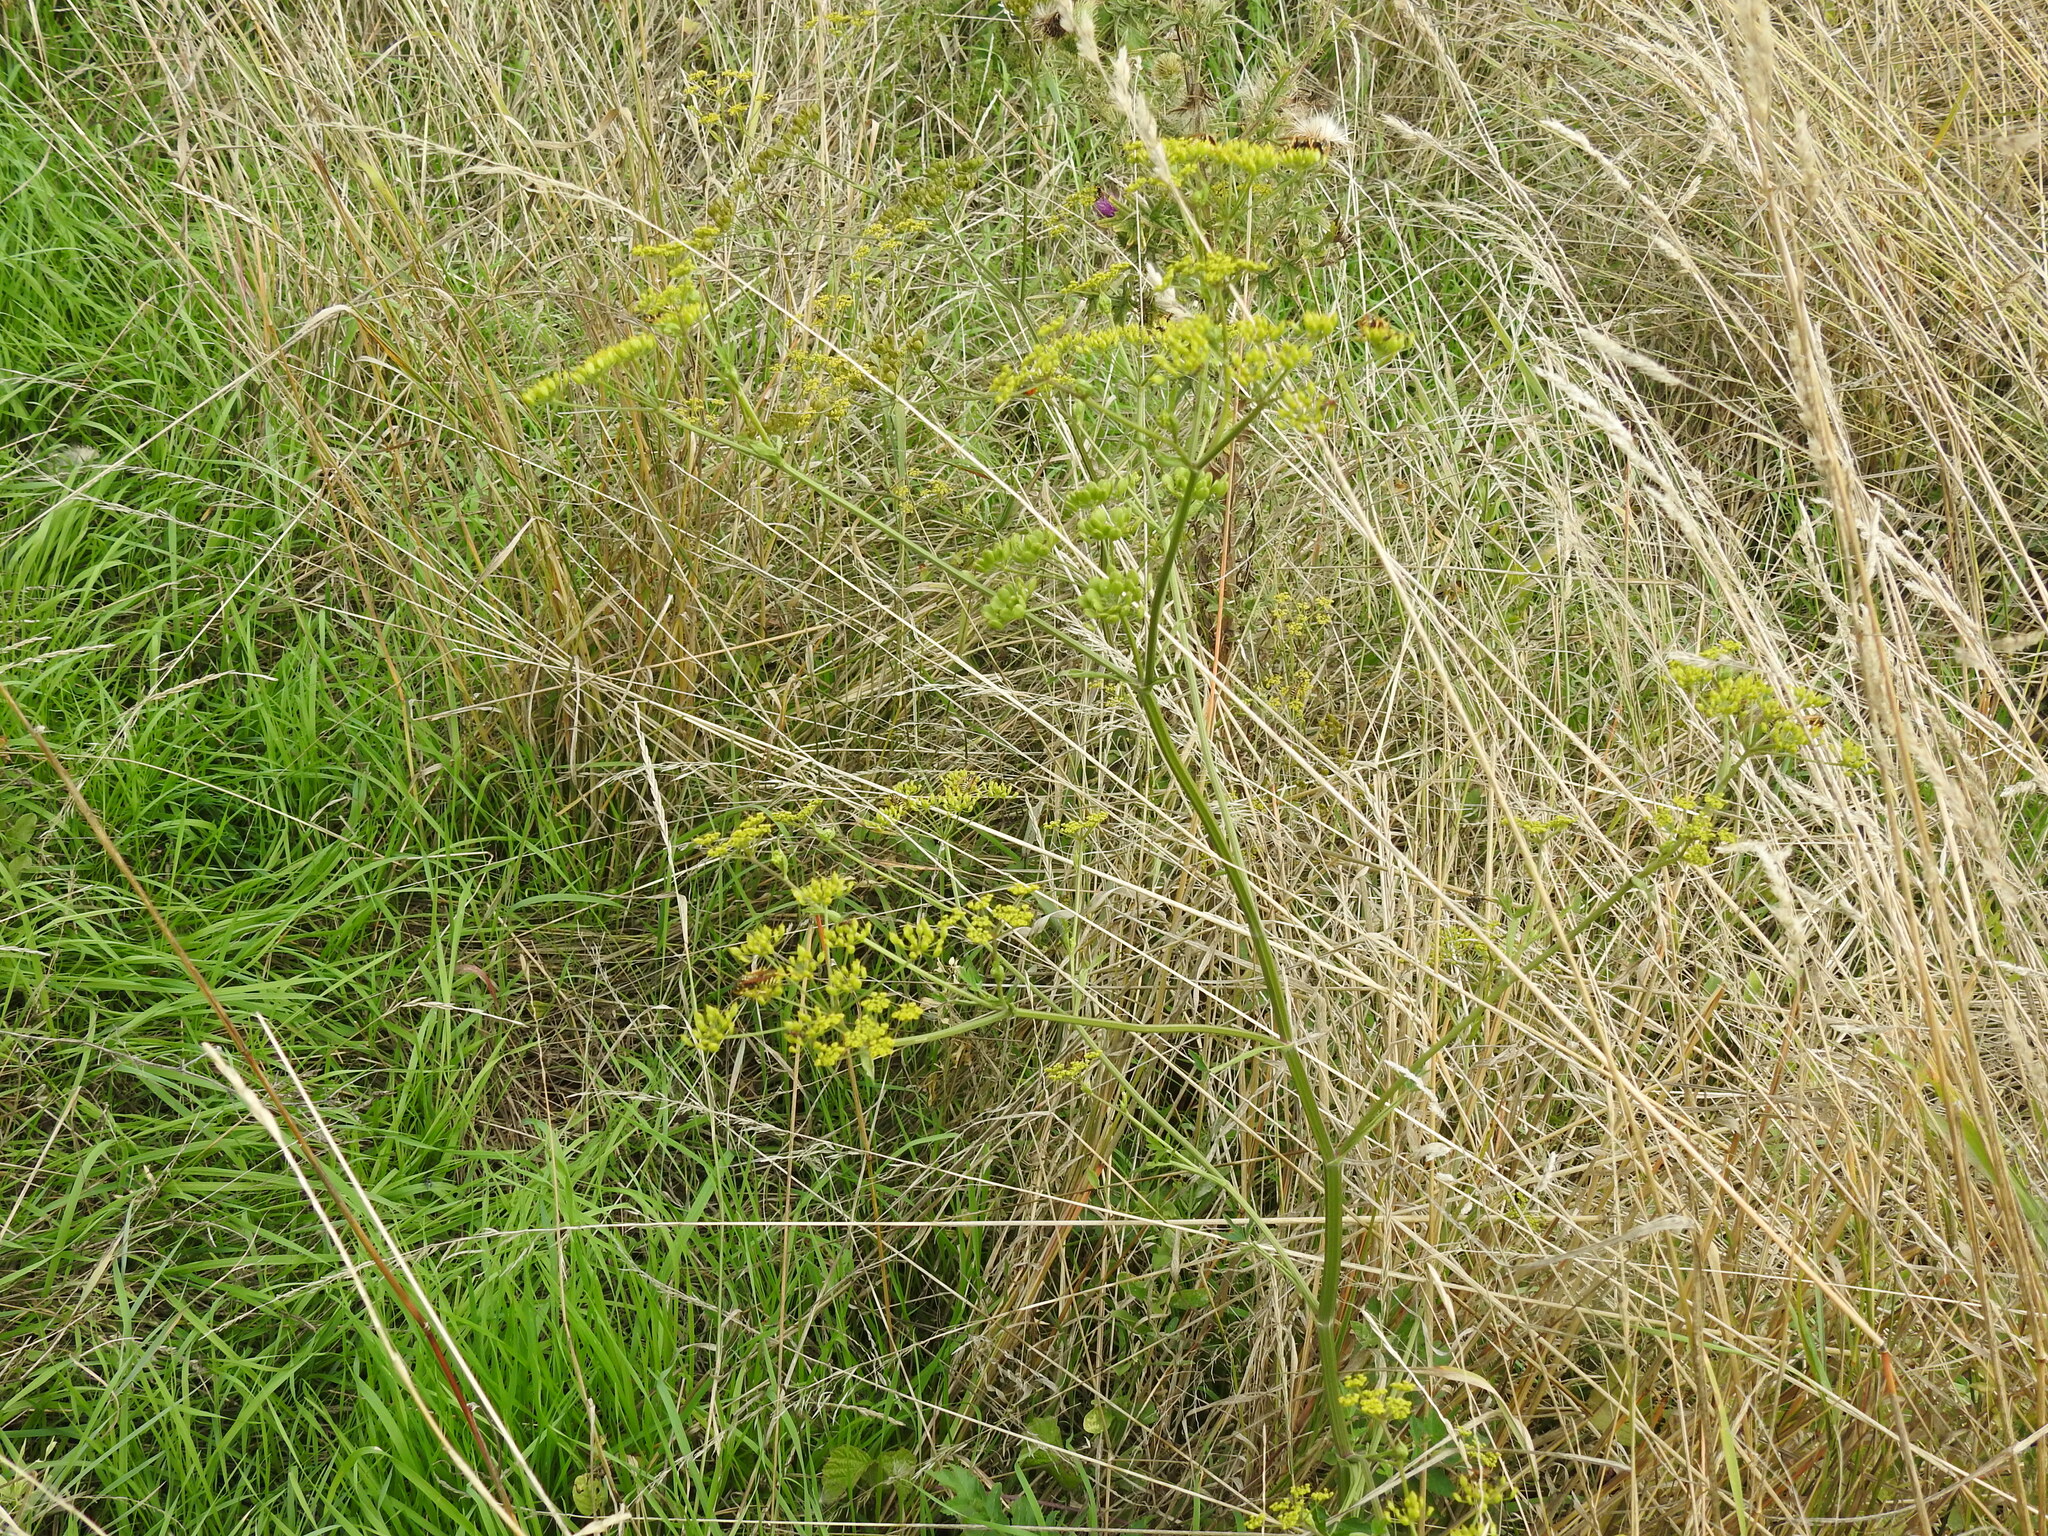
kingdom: Plantae
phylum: Tracheophyta
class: Magnoliopsida
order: Apiales
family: Apiaceae
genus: Pastinaca
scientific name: Pastinaca sativa
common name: Wild parsnip
